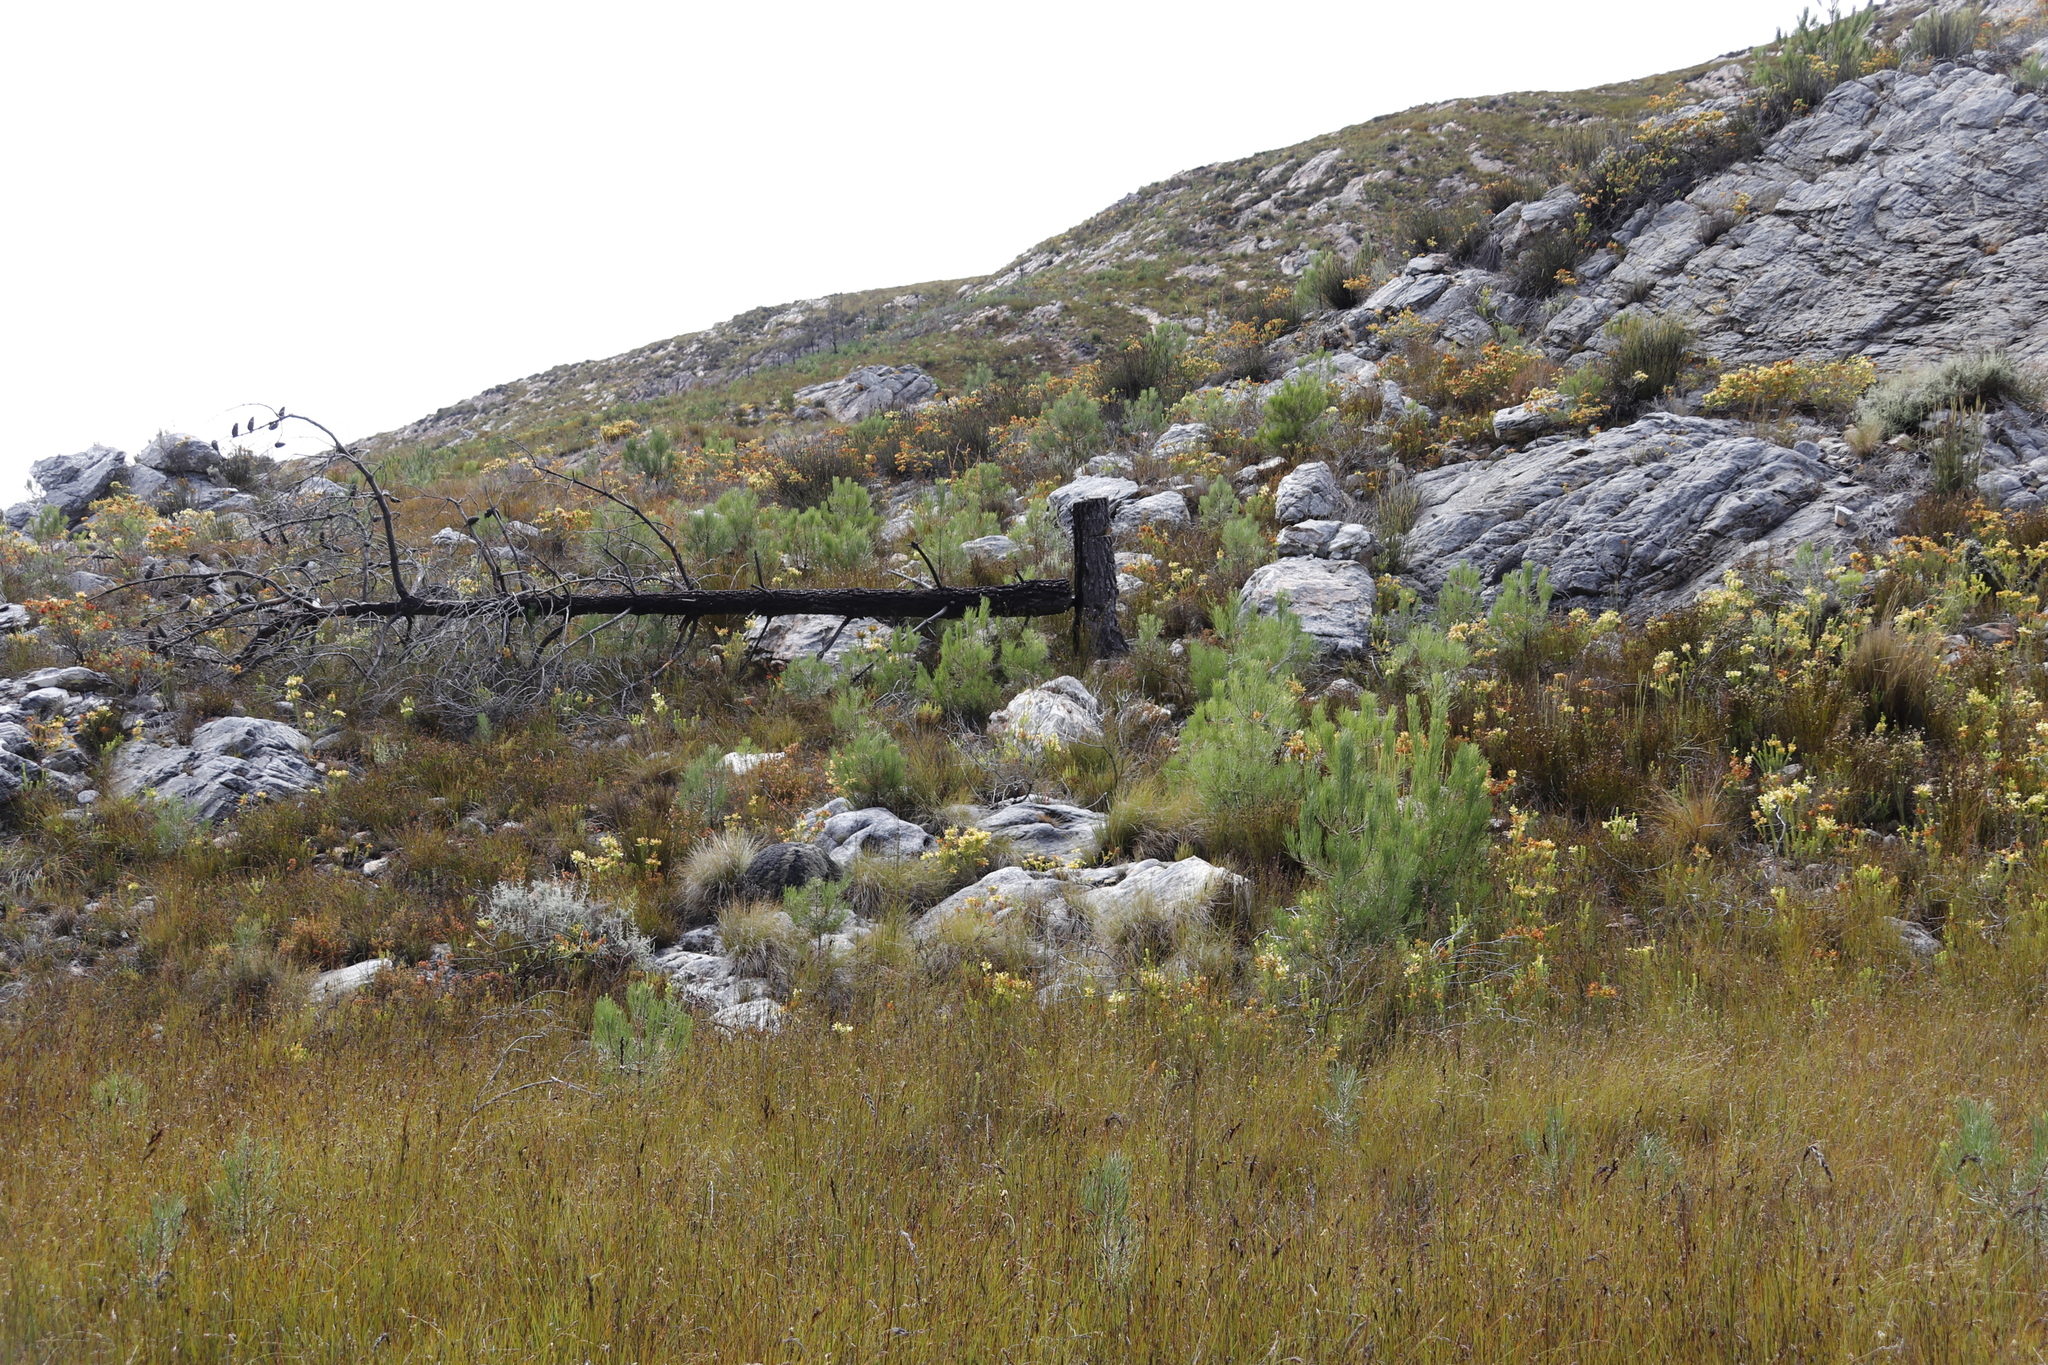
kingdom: Plantae
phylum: Tracheophyta
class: Pinopsida
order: Pinales
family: Pinaceae
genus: Pinus
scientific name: Pinus pinaster
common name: Maritime pine
